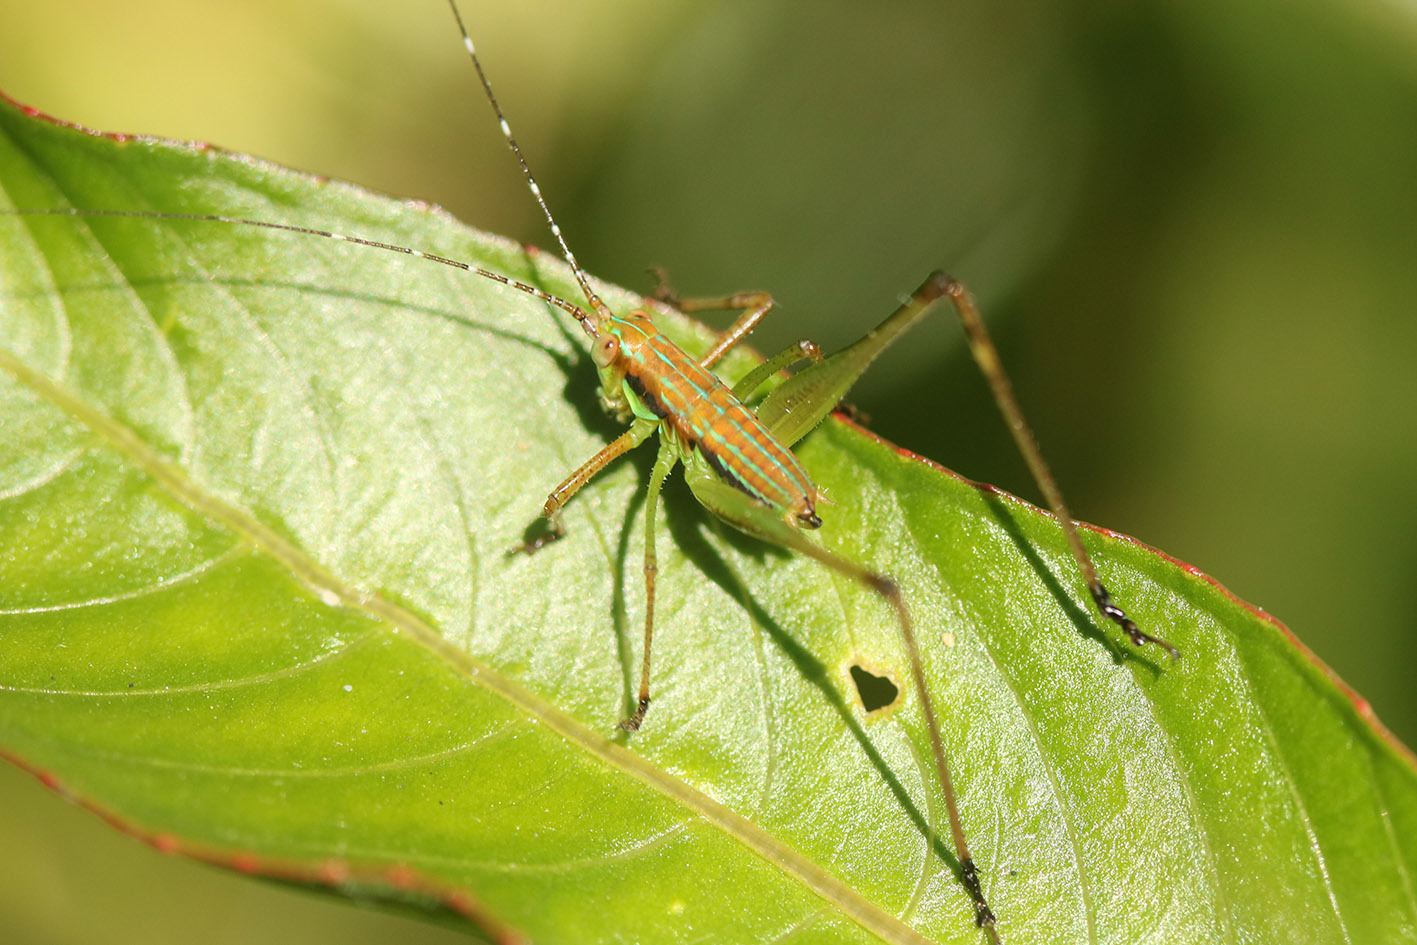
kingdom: Animalia
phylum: Arthropoda
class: Insecta
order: Orthoptera
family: Tettigoniidae
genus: Theudoria
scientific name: Theudoria melanocnemis
